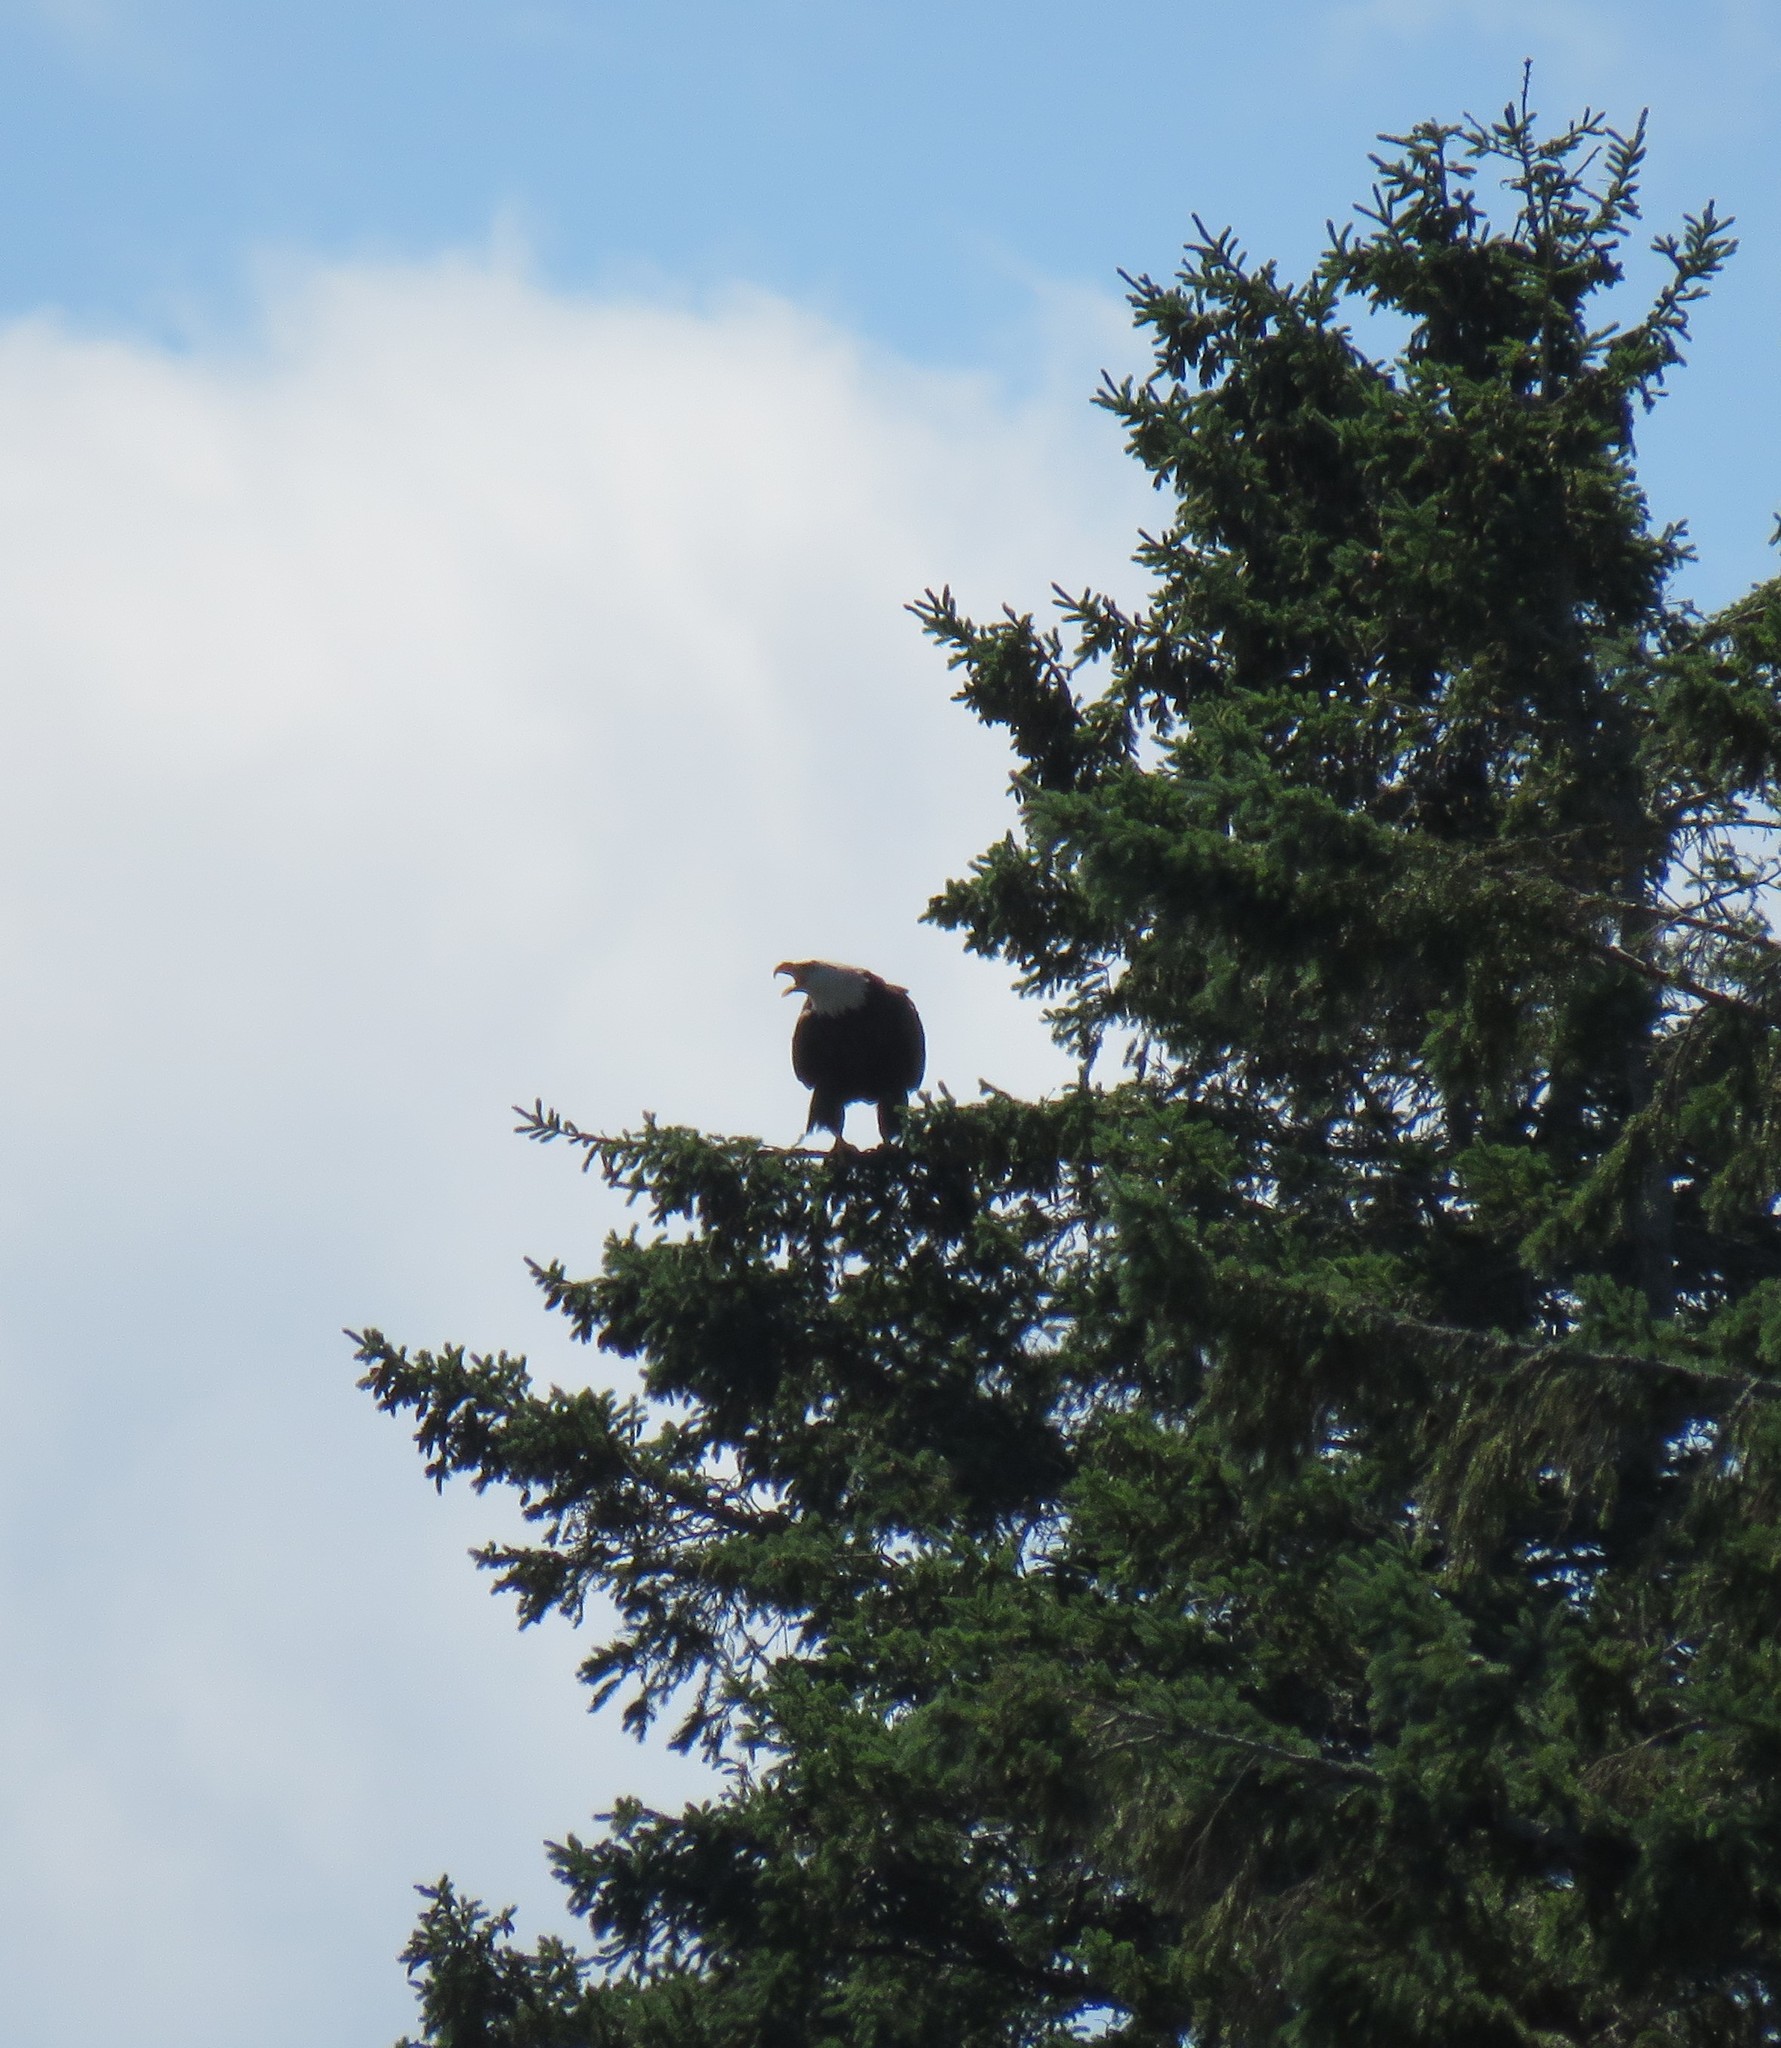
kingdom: Animalia
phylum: Chordata
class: Aves
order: Accipitriformes
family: Accipitridae
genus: Haliaeetus
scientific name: Haliaeetus leucocephalus
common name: Bald eagle
